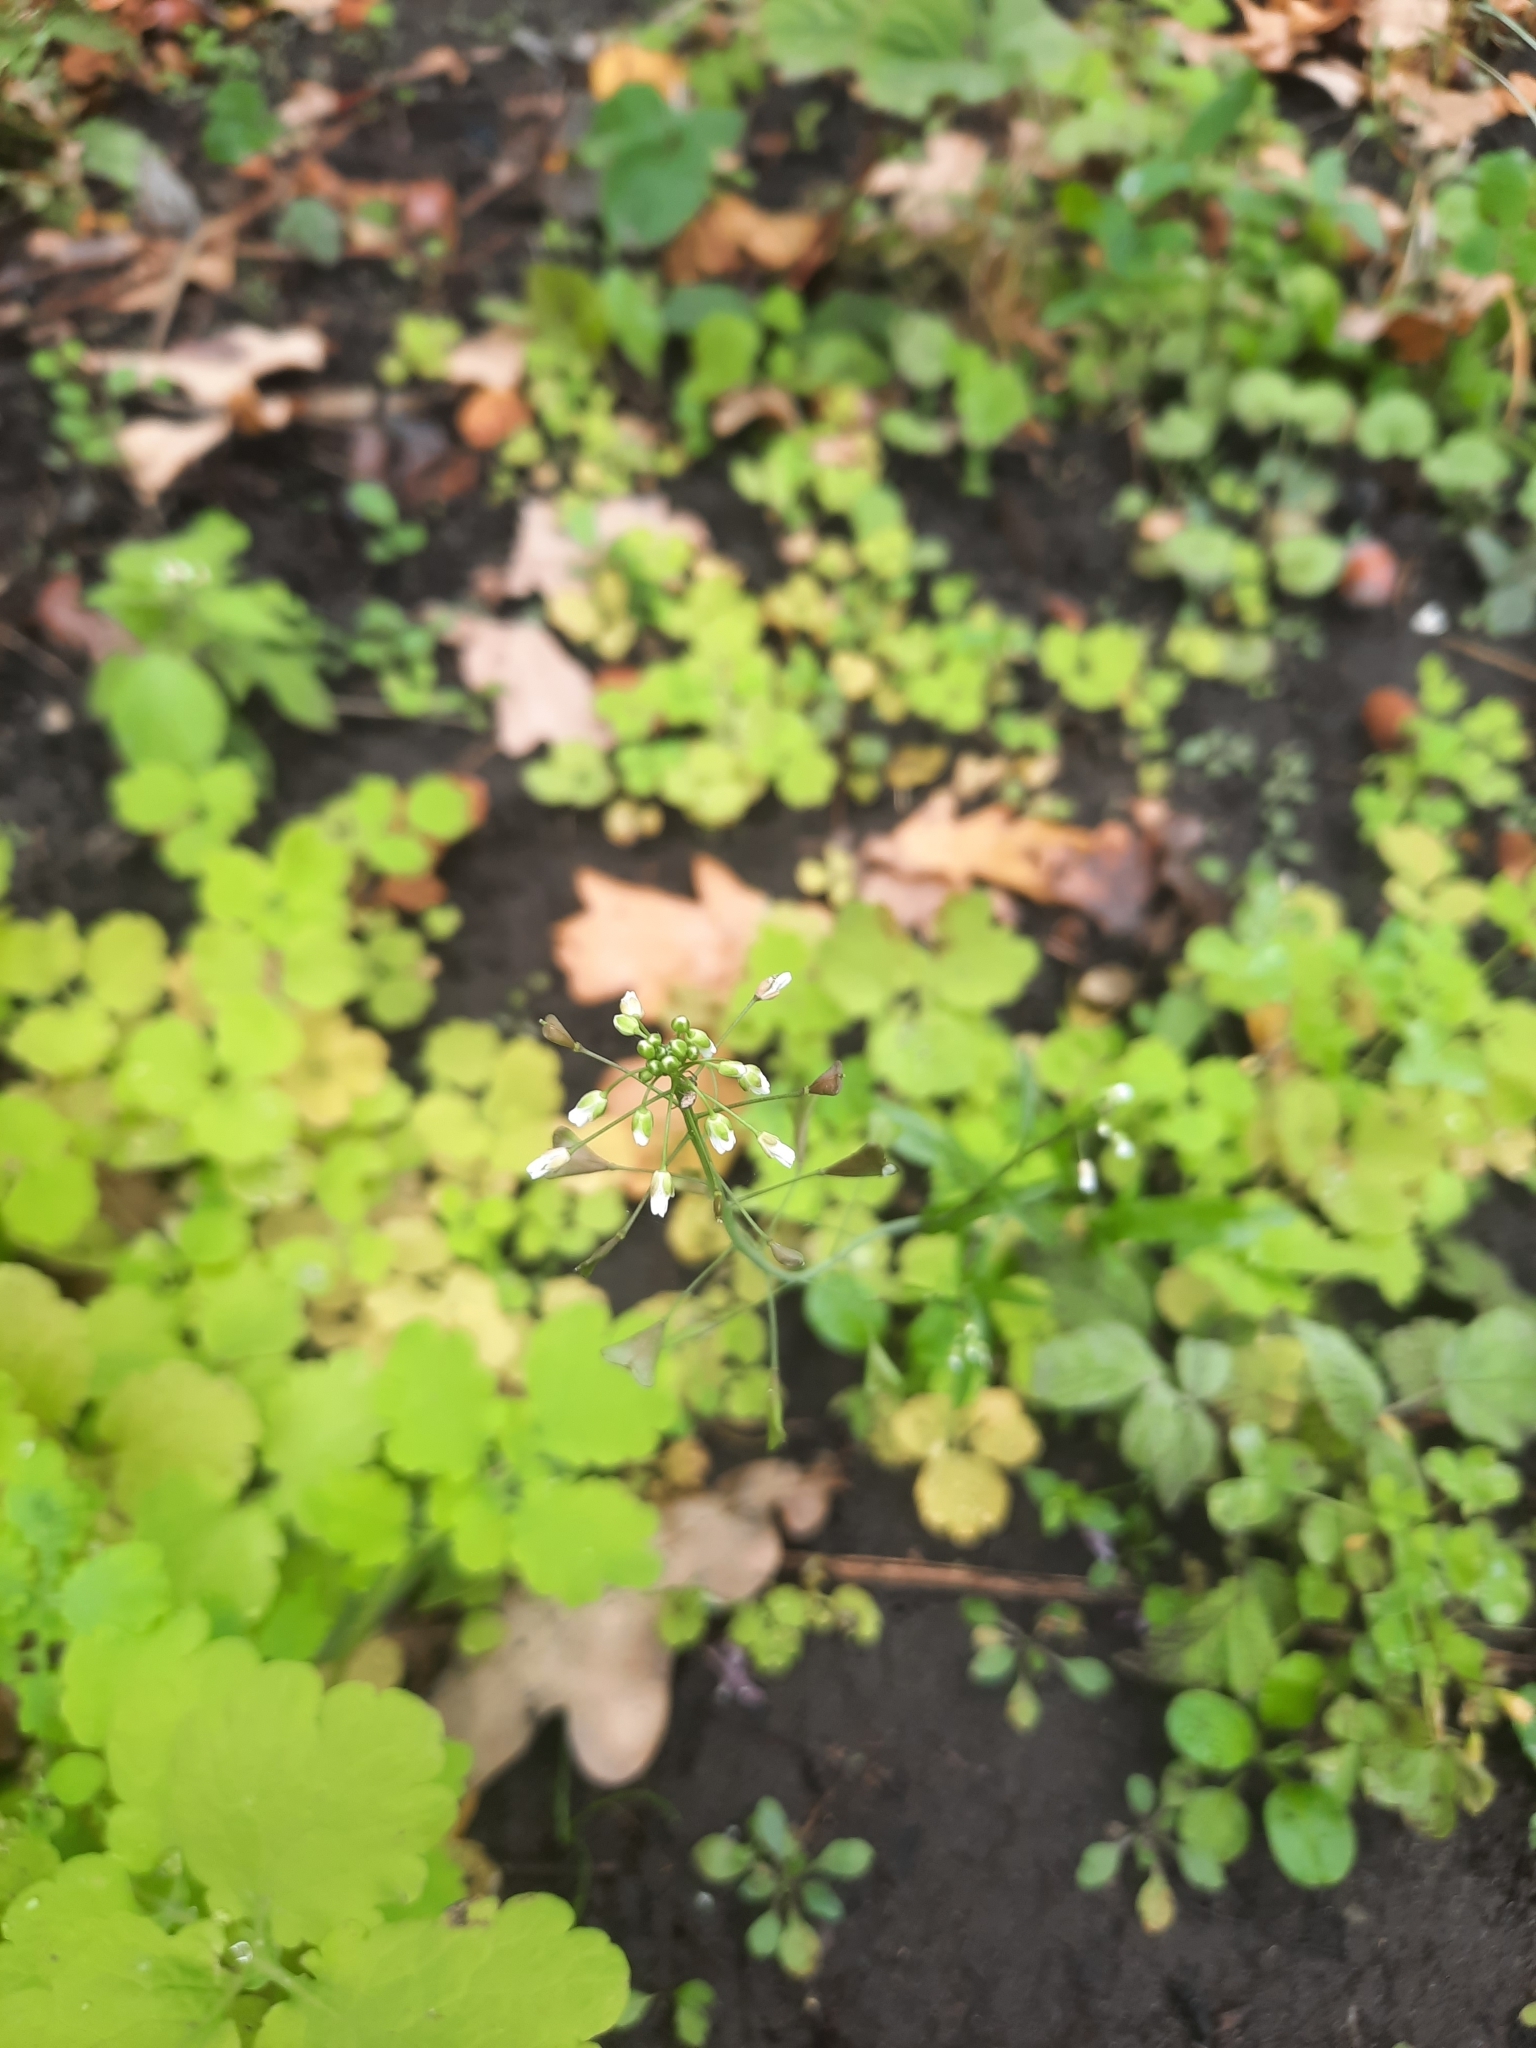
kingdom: Plantae
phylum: Tracheophyta
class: Magnoliopsida
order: Brassicales
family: Brassicaceae
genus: Capsella
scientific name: Capsella bursa-pastoris
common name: Shepherd's purse
